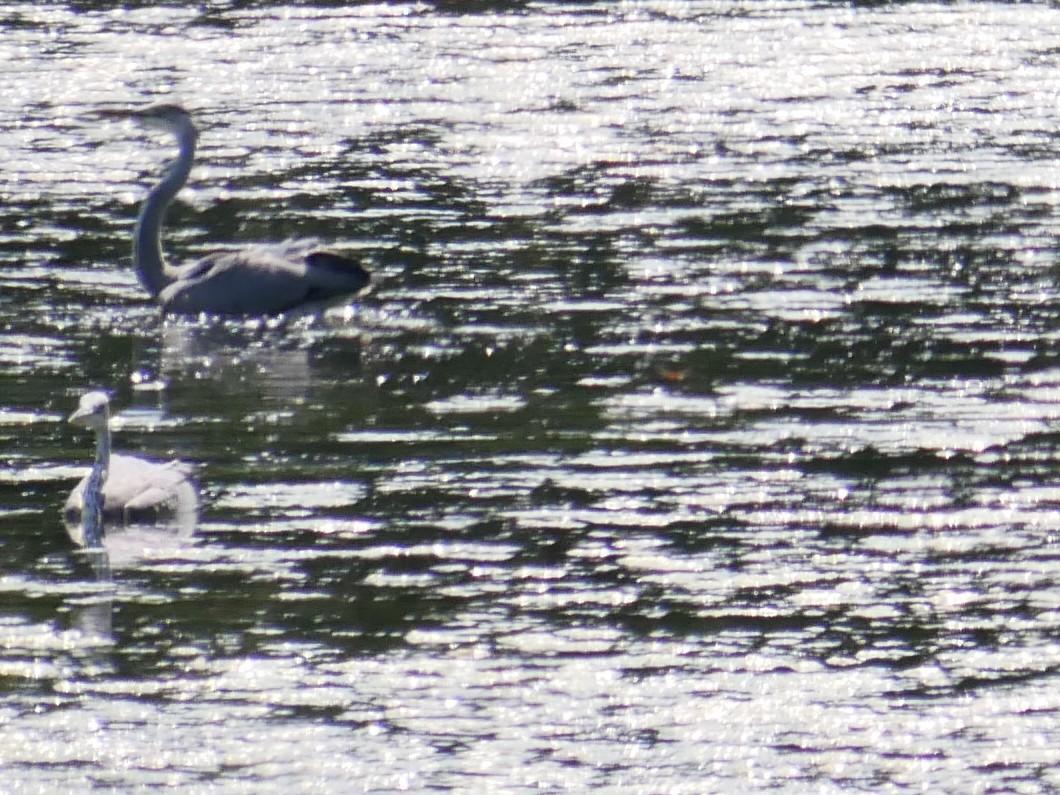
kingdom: Animalia
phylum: Chordata
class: Aves
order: Pelecaniformes
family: Ardeidae
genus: Ardea
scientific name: Ardea cinerea
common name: Grey heron
